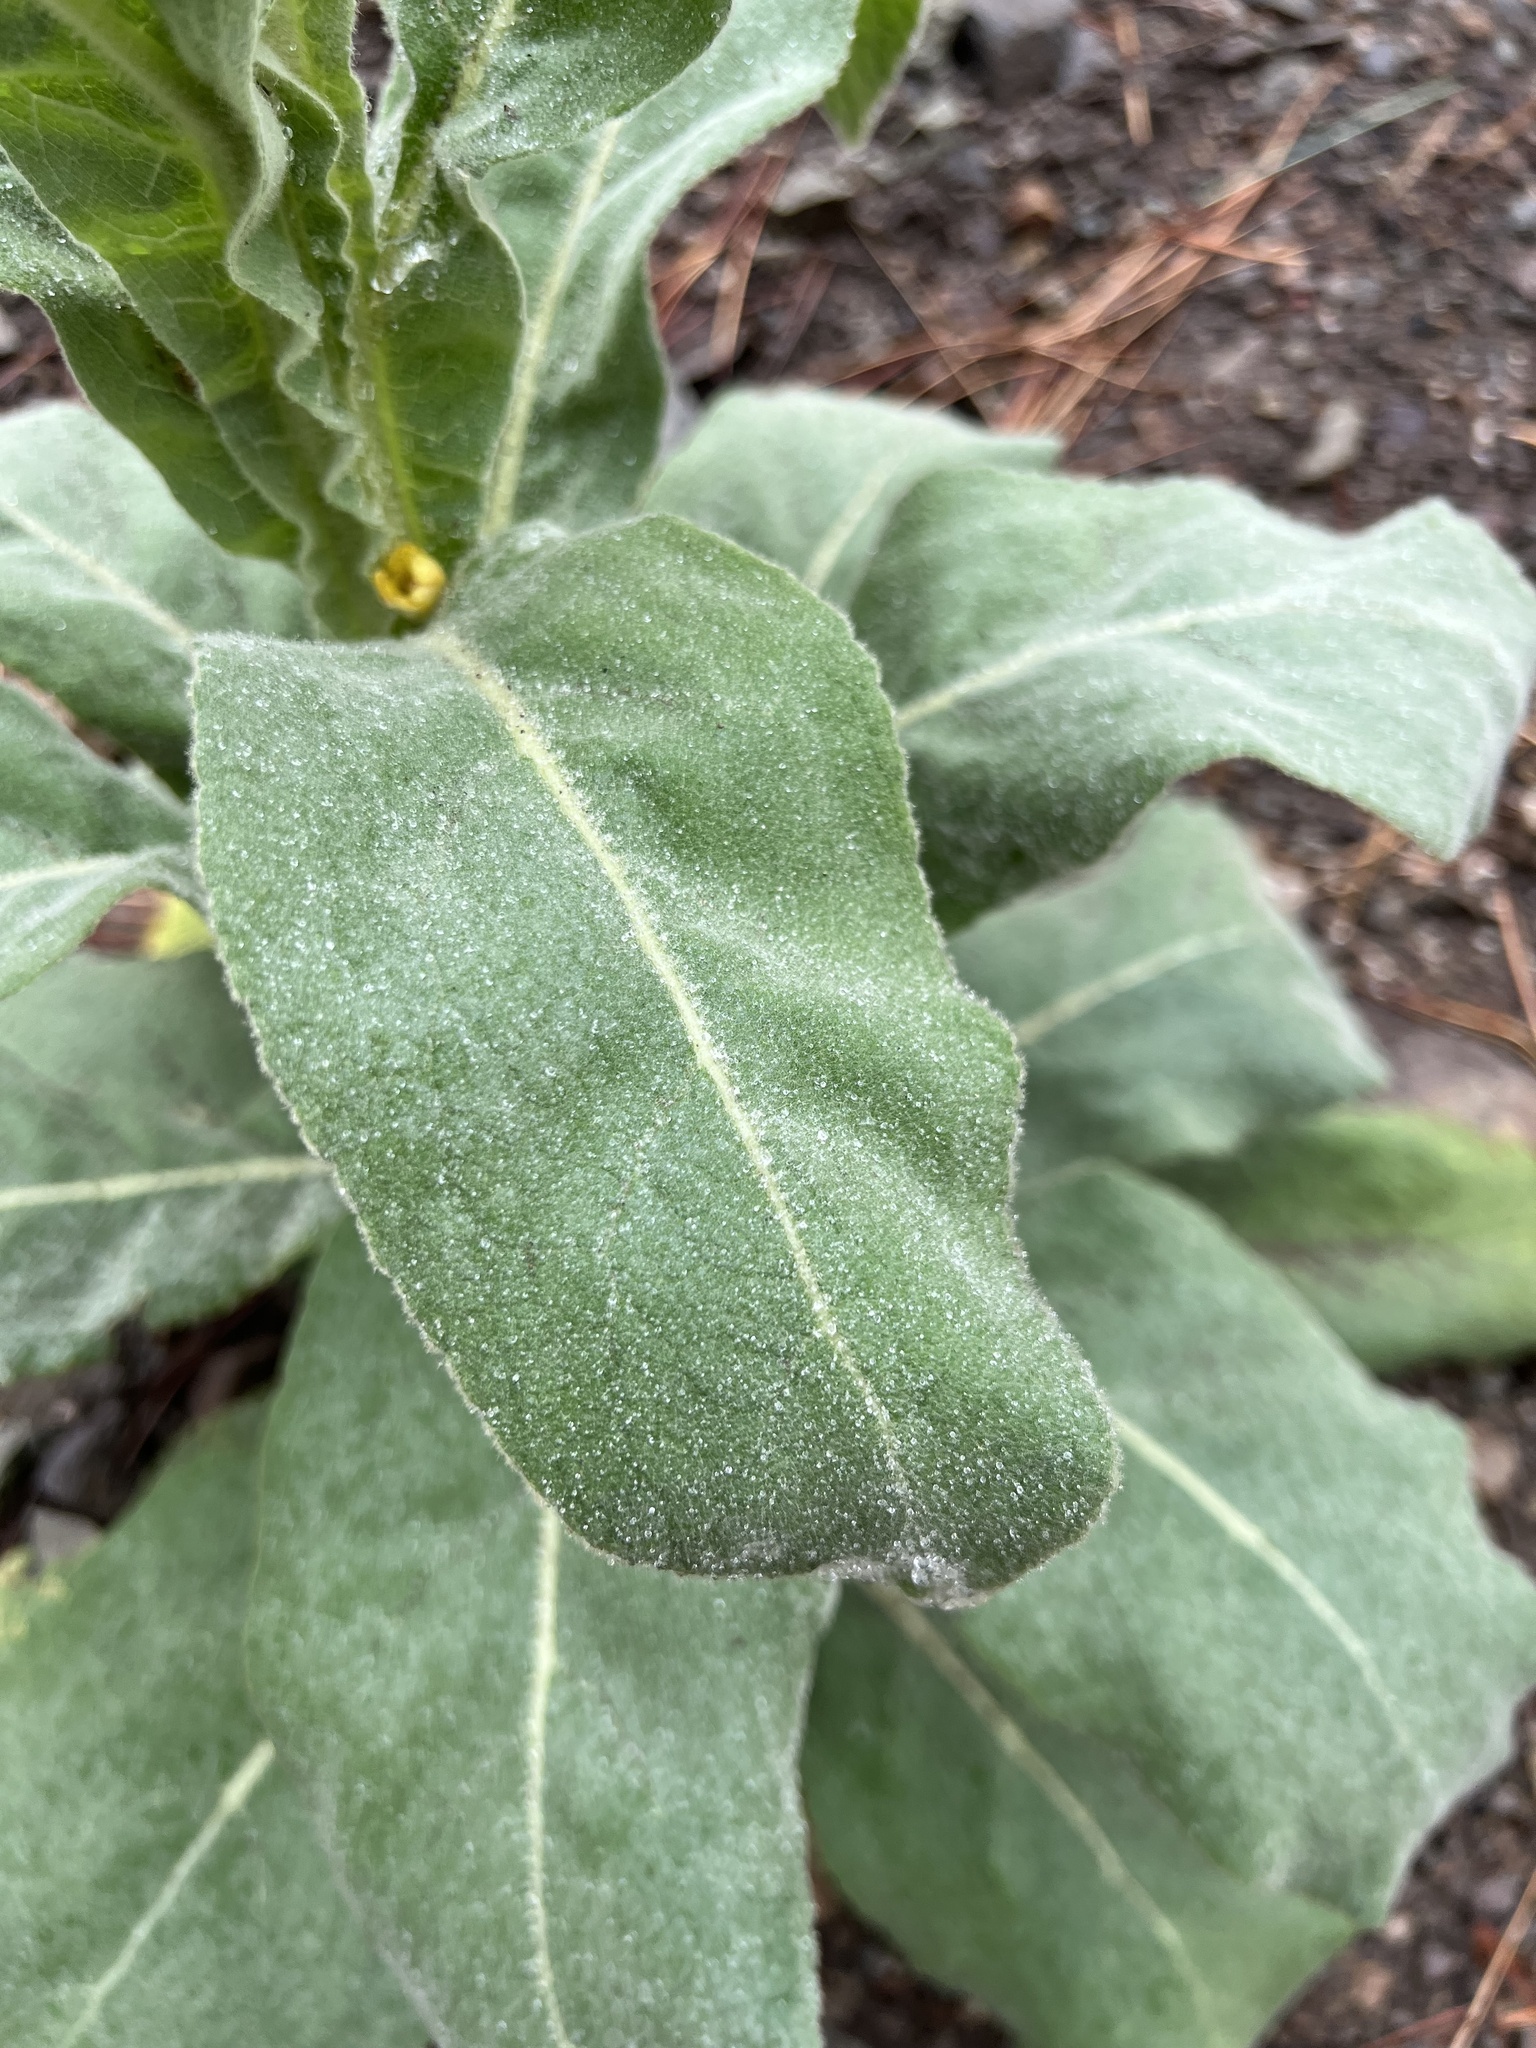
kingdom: Plantae
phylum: Tracheophyta
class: Magnoliopsida
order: Lamiales
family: Scrophulariaceae
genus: Verbascum
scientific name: Verbascum thapsus
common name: Common mullein
